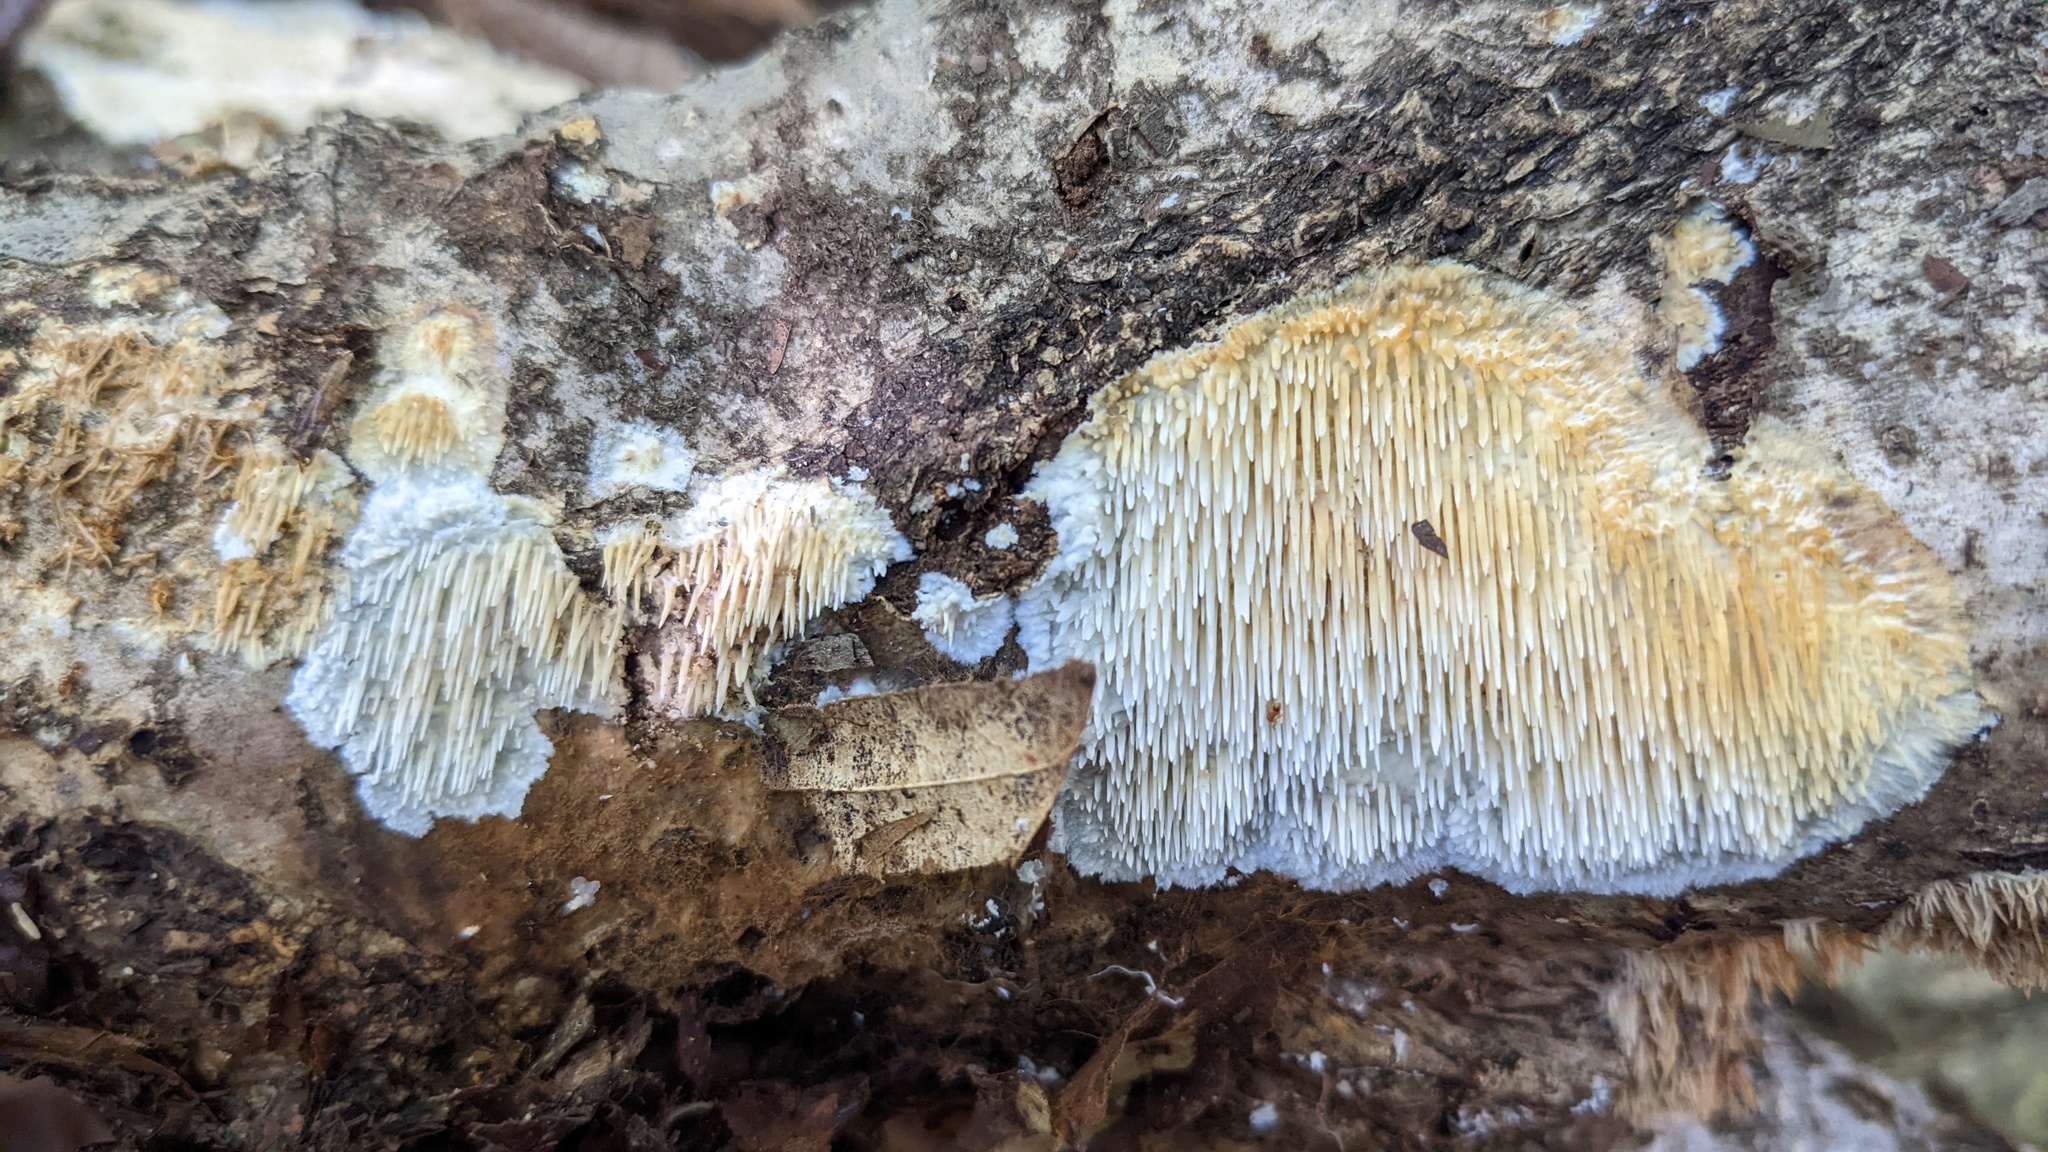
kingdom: Fungi
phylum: Basidiomycota
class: Agaricomycetes
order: Agaricales
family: Radulomycetaceae
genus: Radulomyces
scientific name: Radulomyces copelandii
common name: Asian beauty
